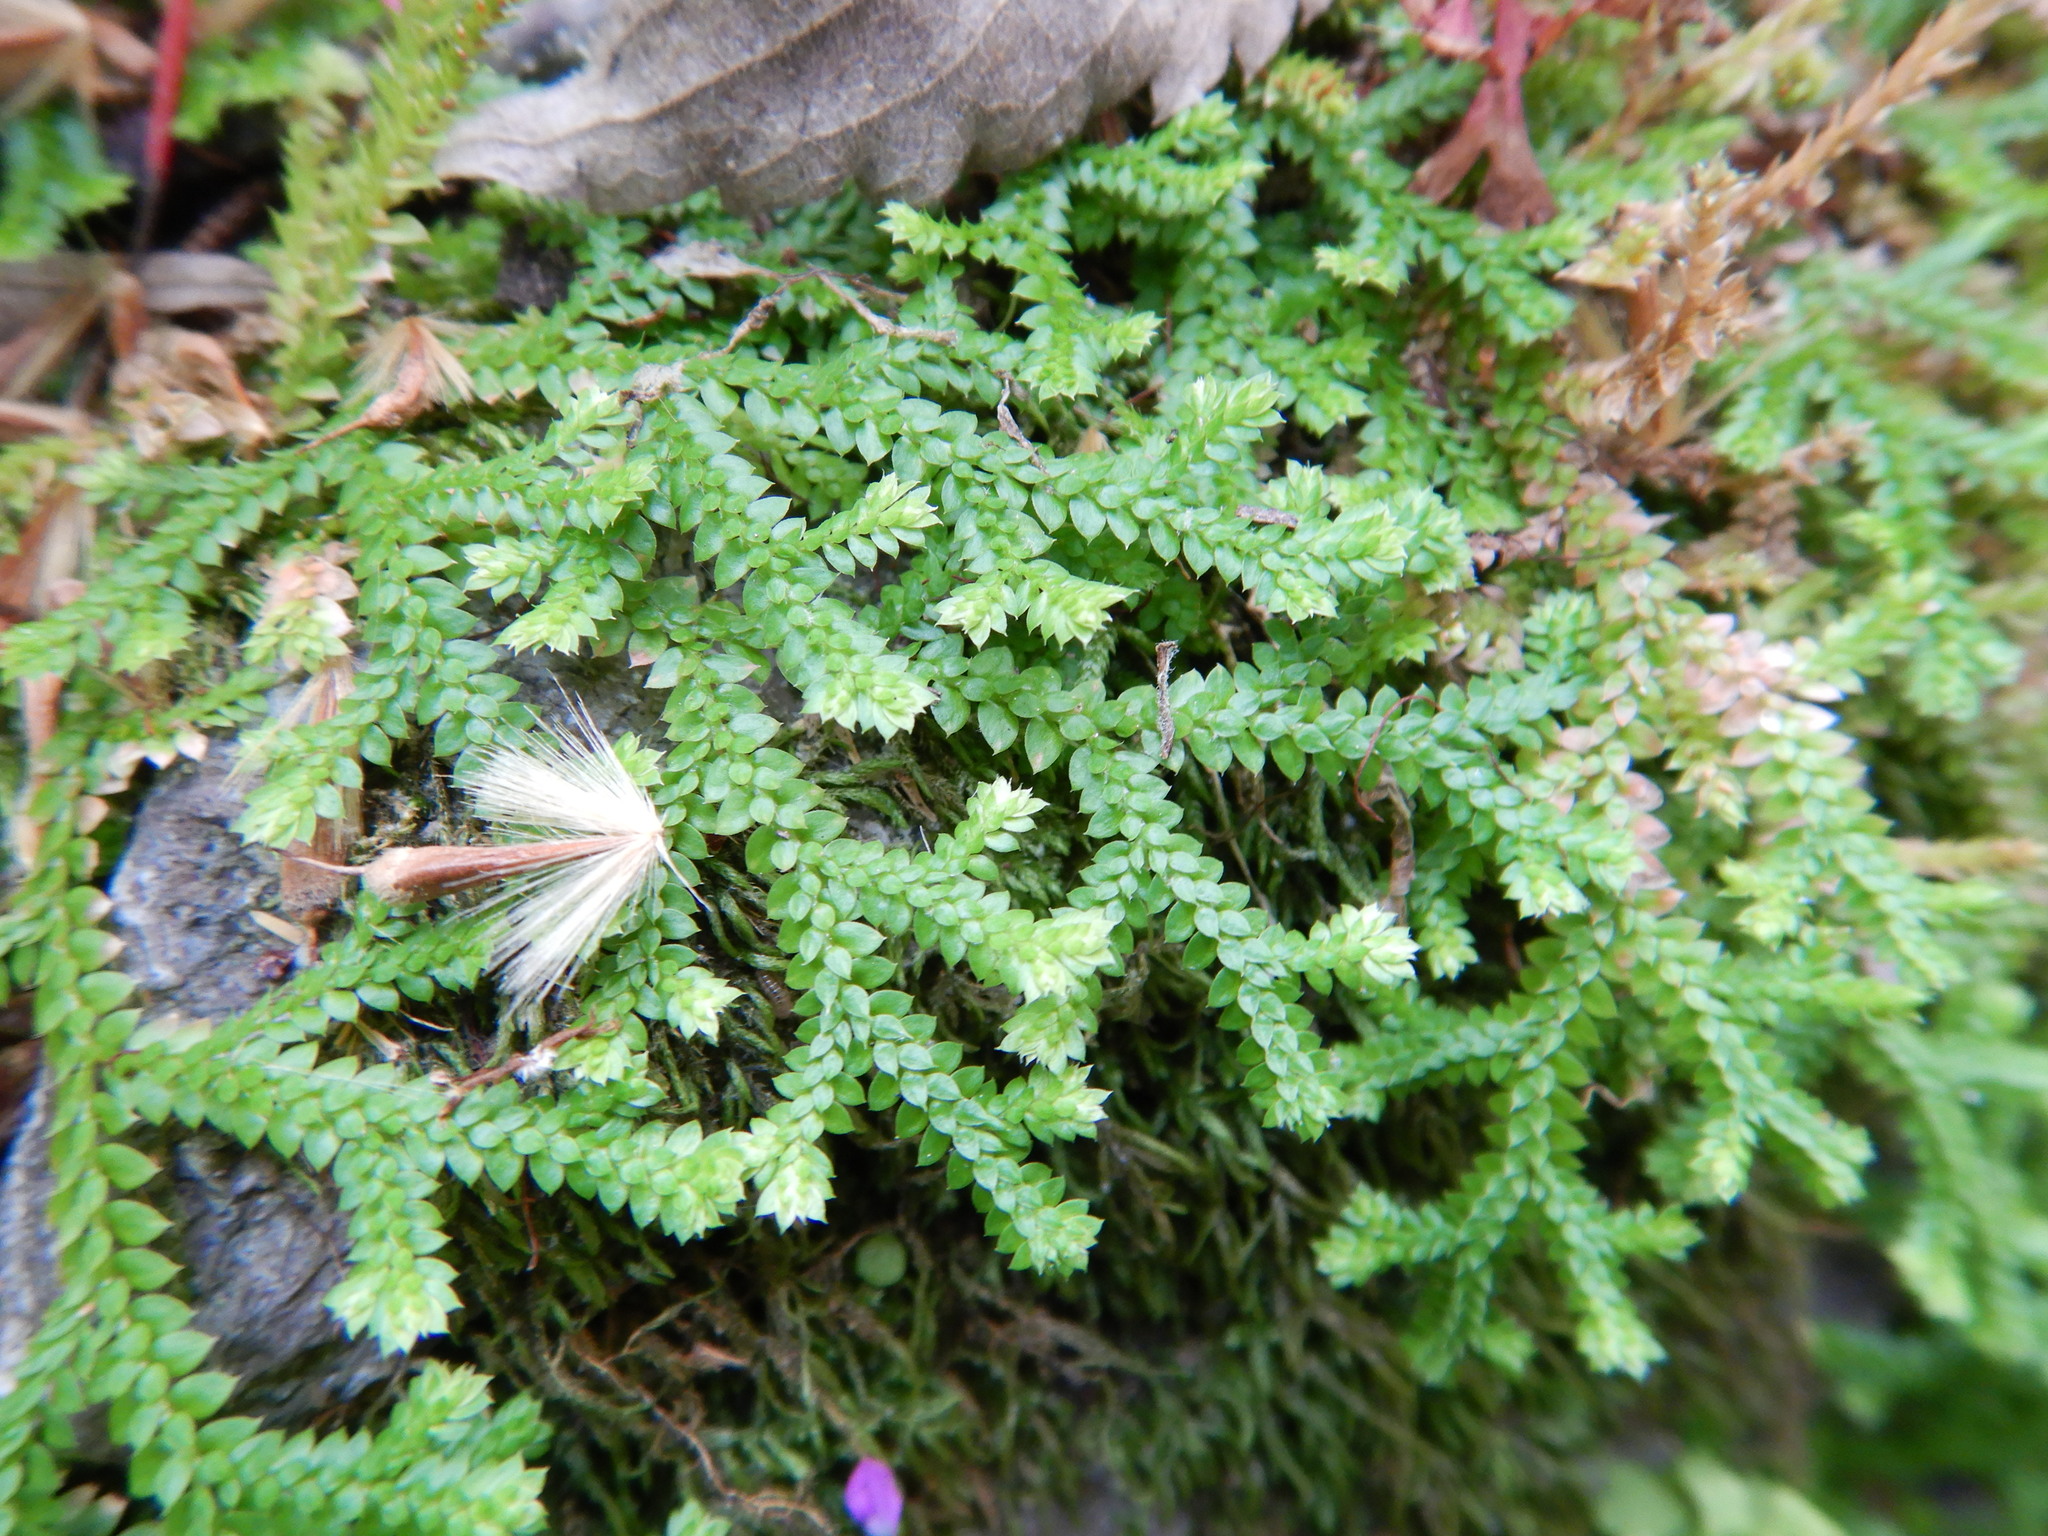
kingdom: Plantae
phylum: Tracheophyta
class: Lycopodiopsida
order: Selaginellales
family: Selaginellaceae
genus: Selaginella
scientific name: Selaginella denticulata
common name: Toothed-leaved clubmoss
